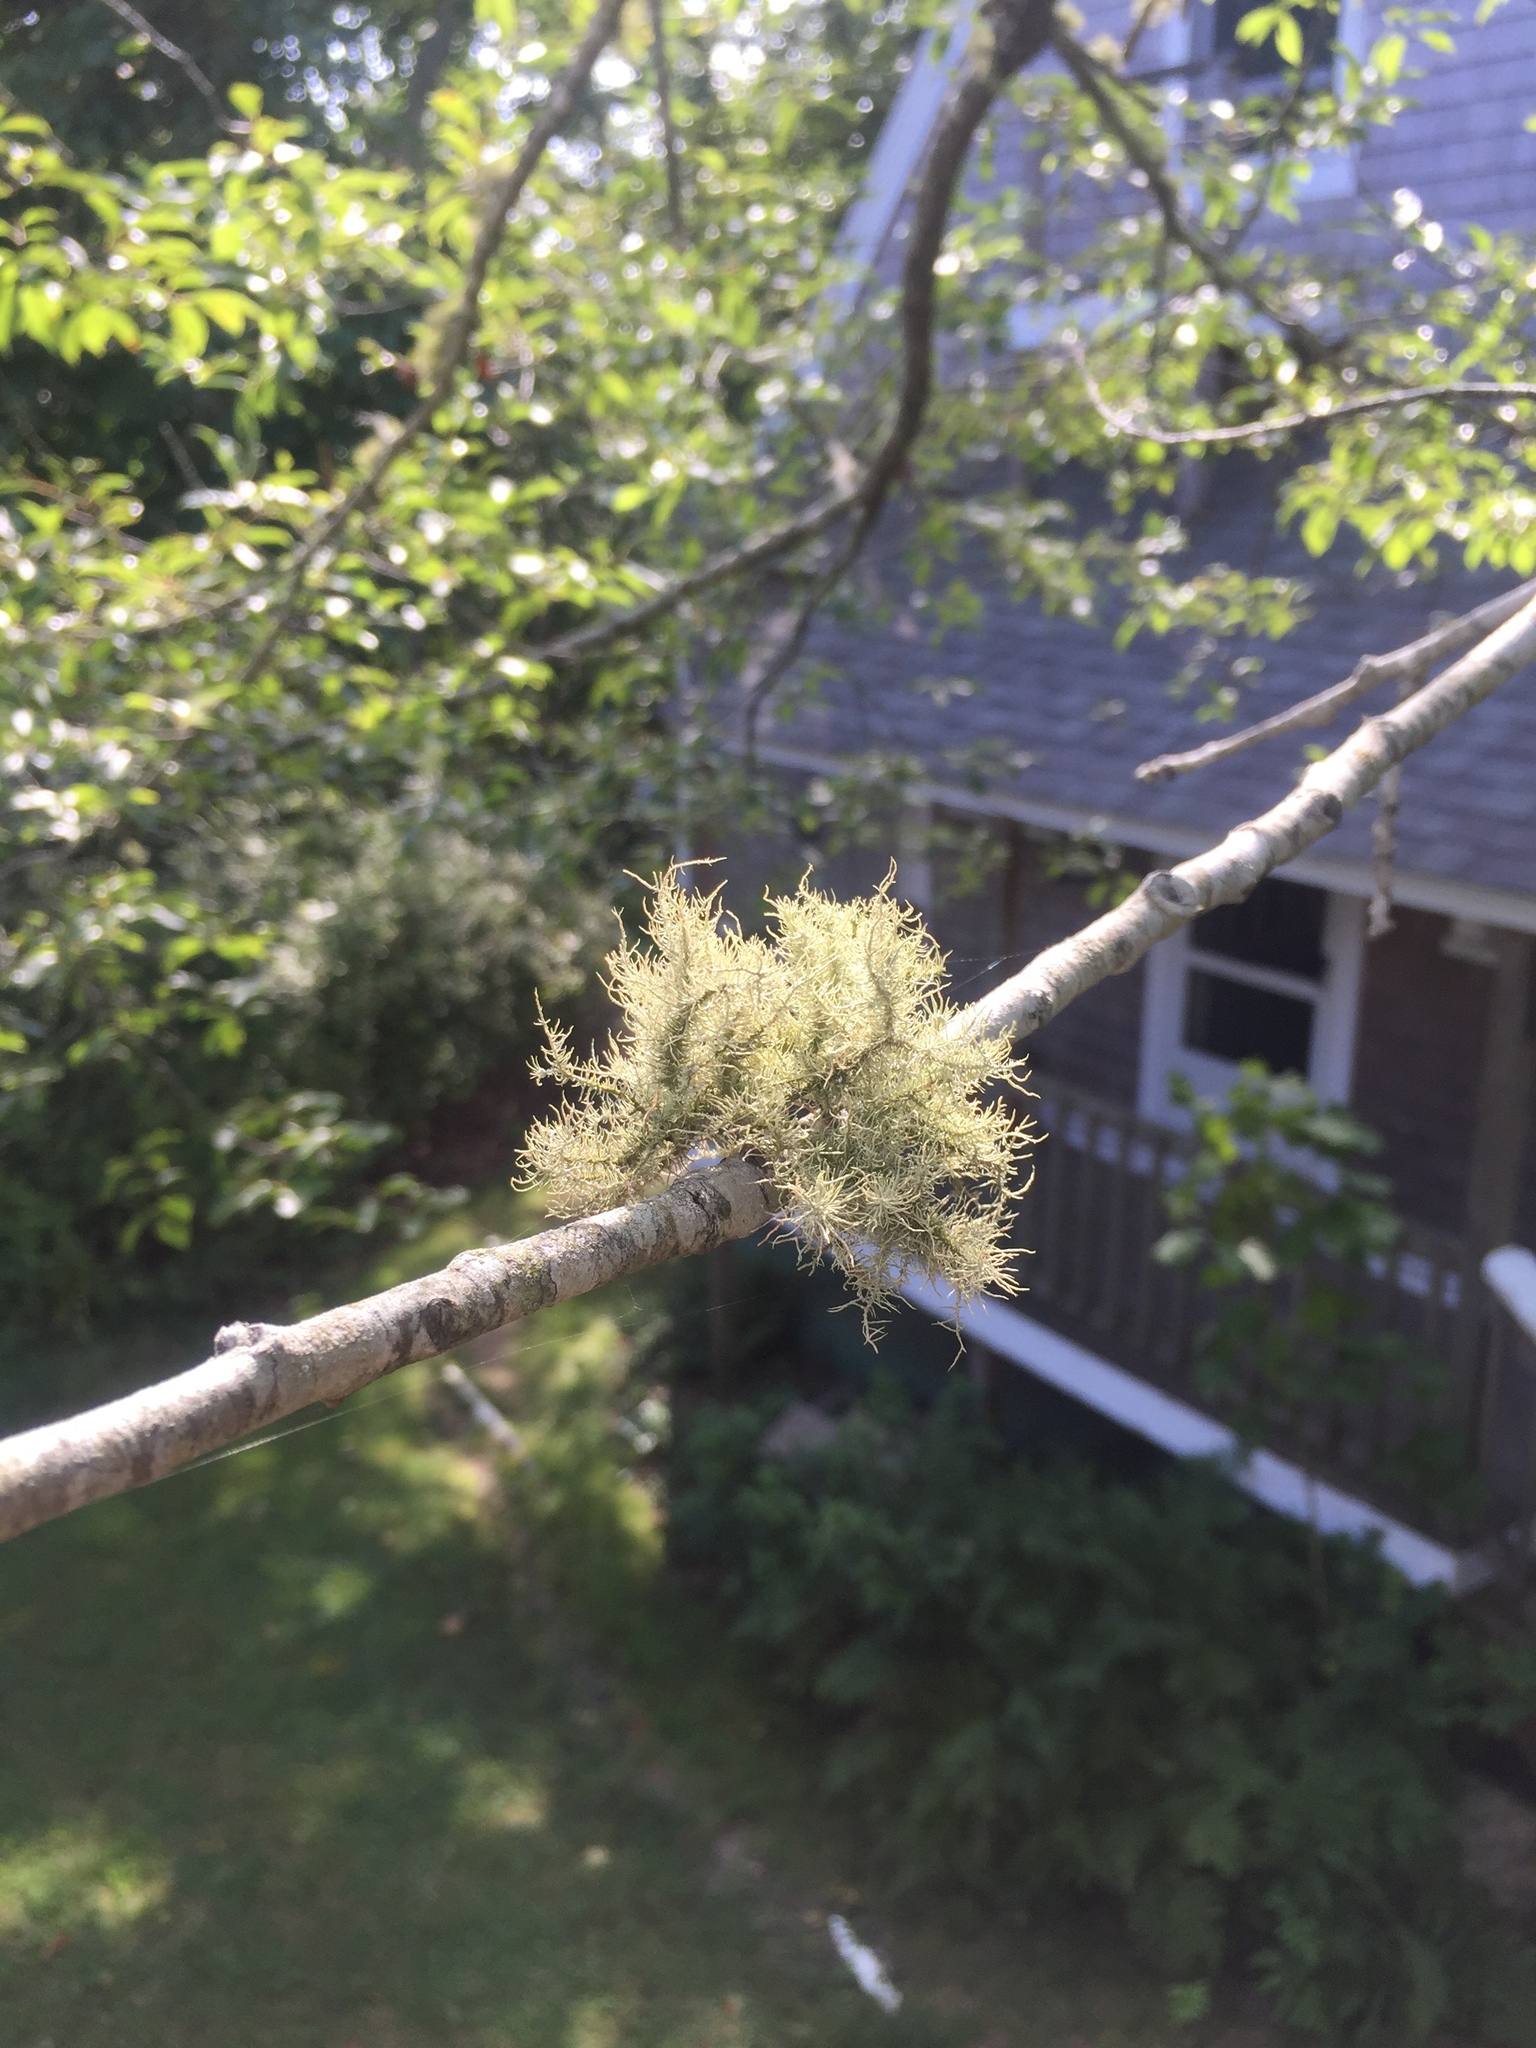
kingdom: Fungi
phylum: Ascomycota
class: Lecanoromycetes
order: Lecanorales
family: Parmeliaceae
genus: Usnea
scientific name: Usnea strigosa
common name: Bushy beard lichen
